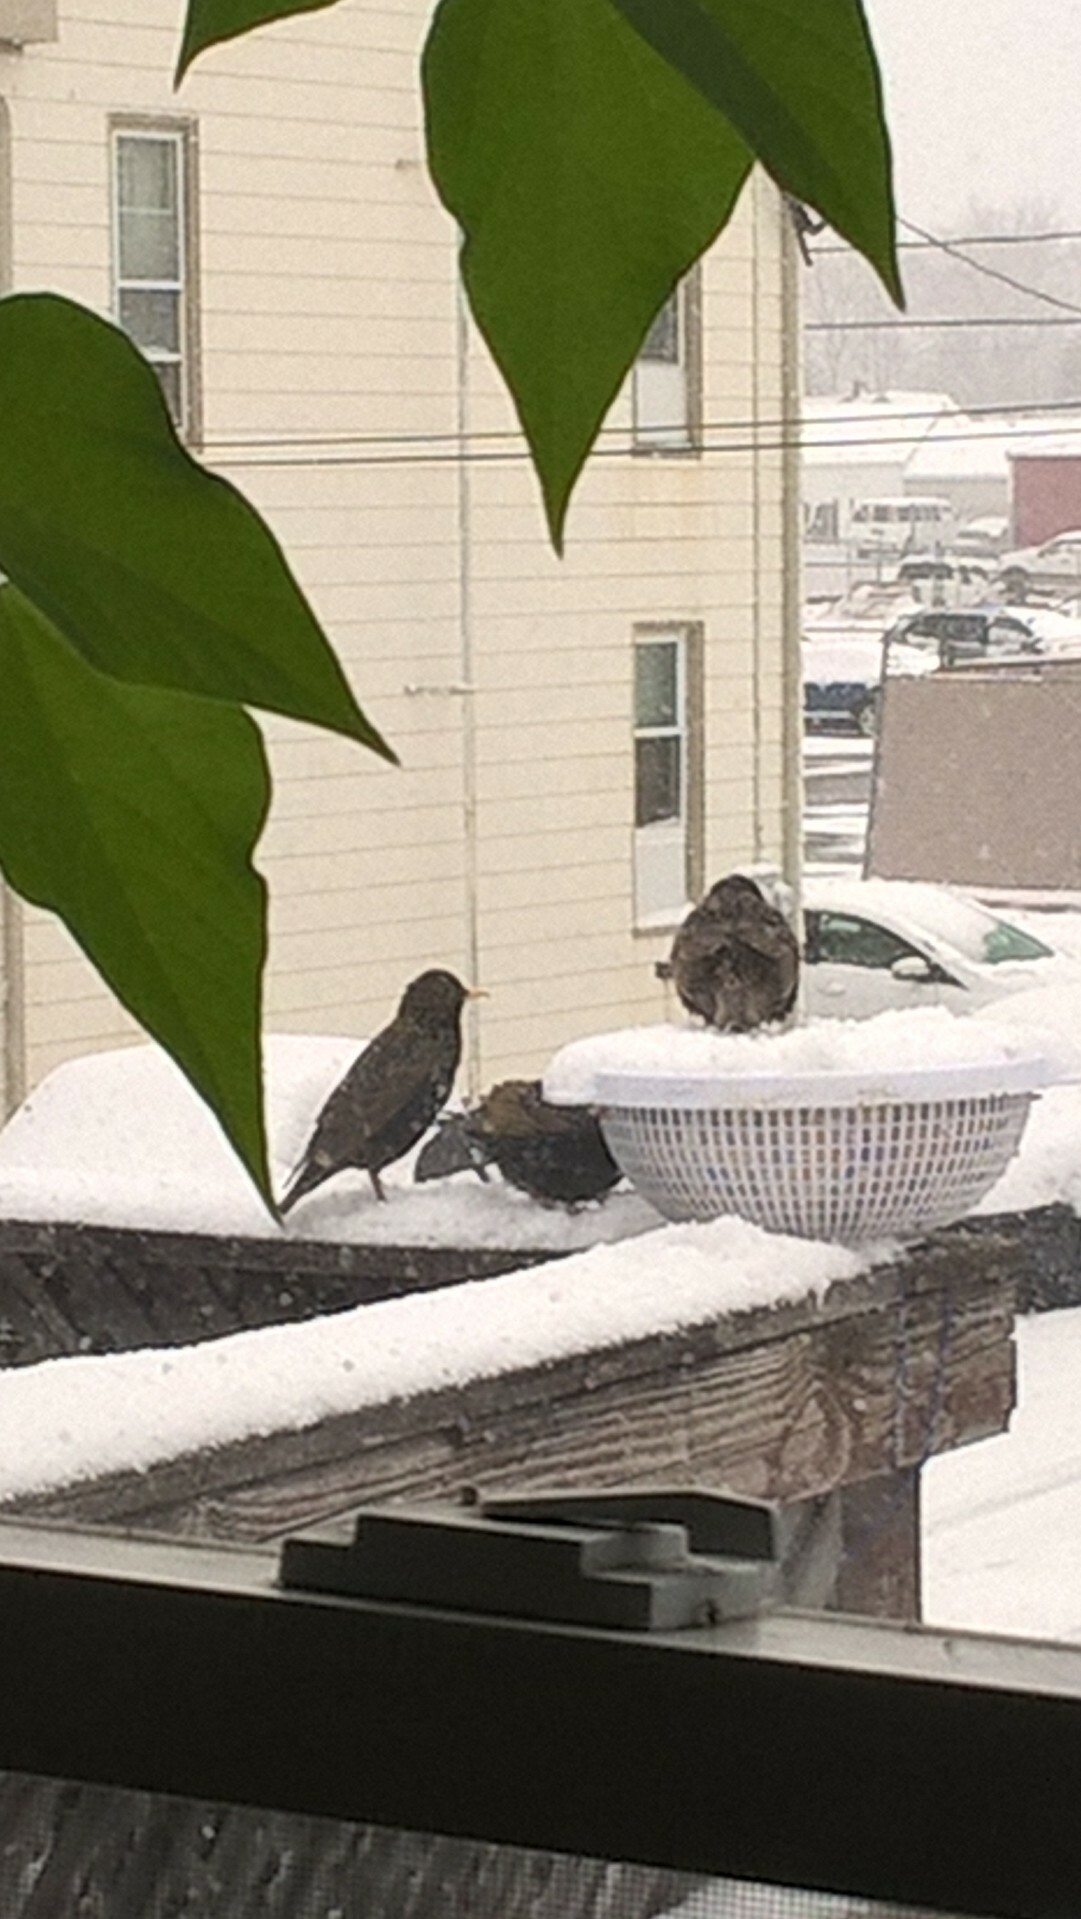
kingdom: Animalia
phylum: Chordata
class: Aves
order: Passeriformes
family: Sturnidae
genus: Sturnus
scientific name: Sturnus vulgaris
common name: Common starling
